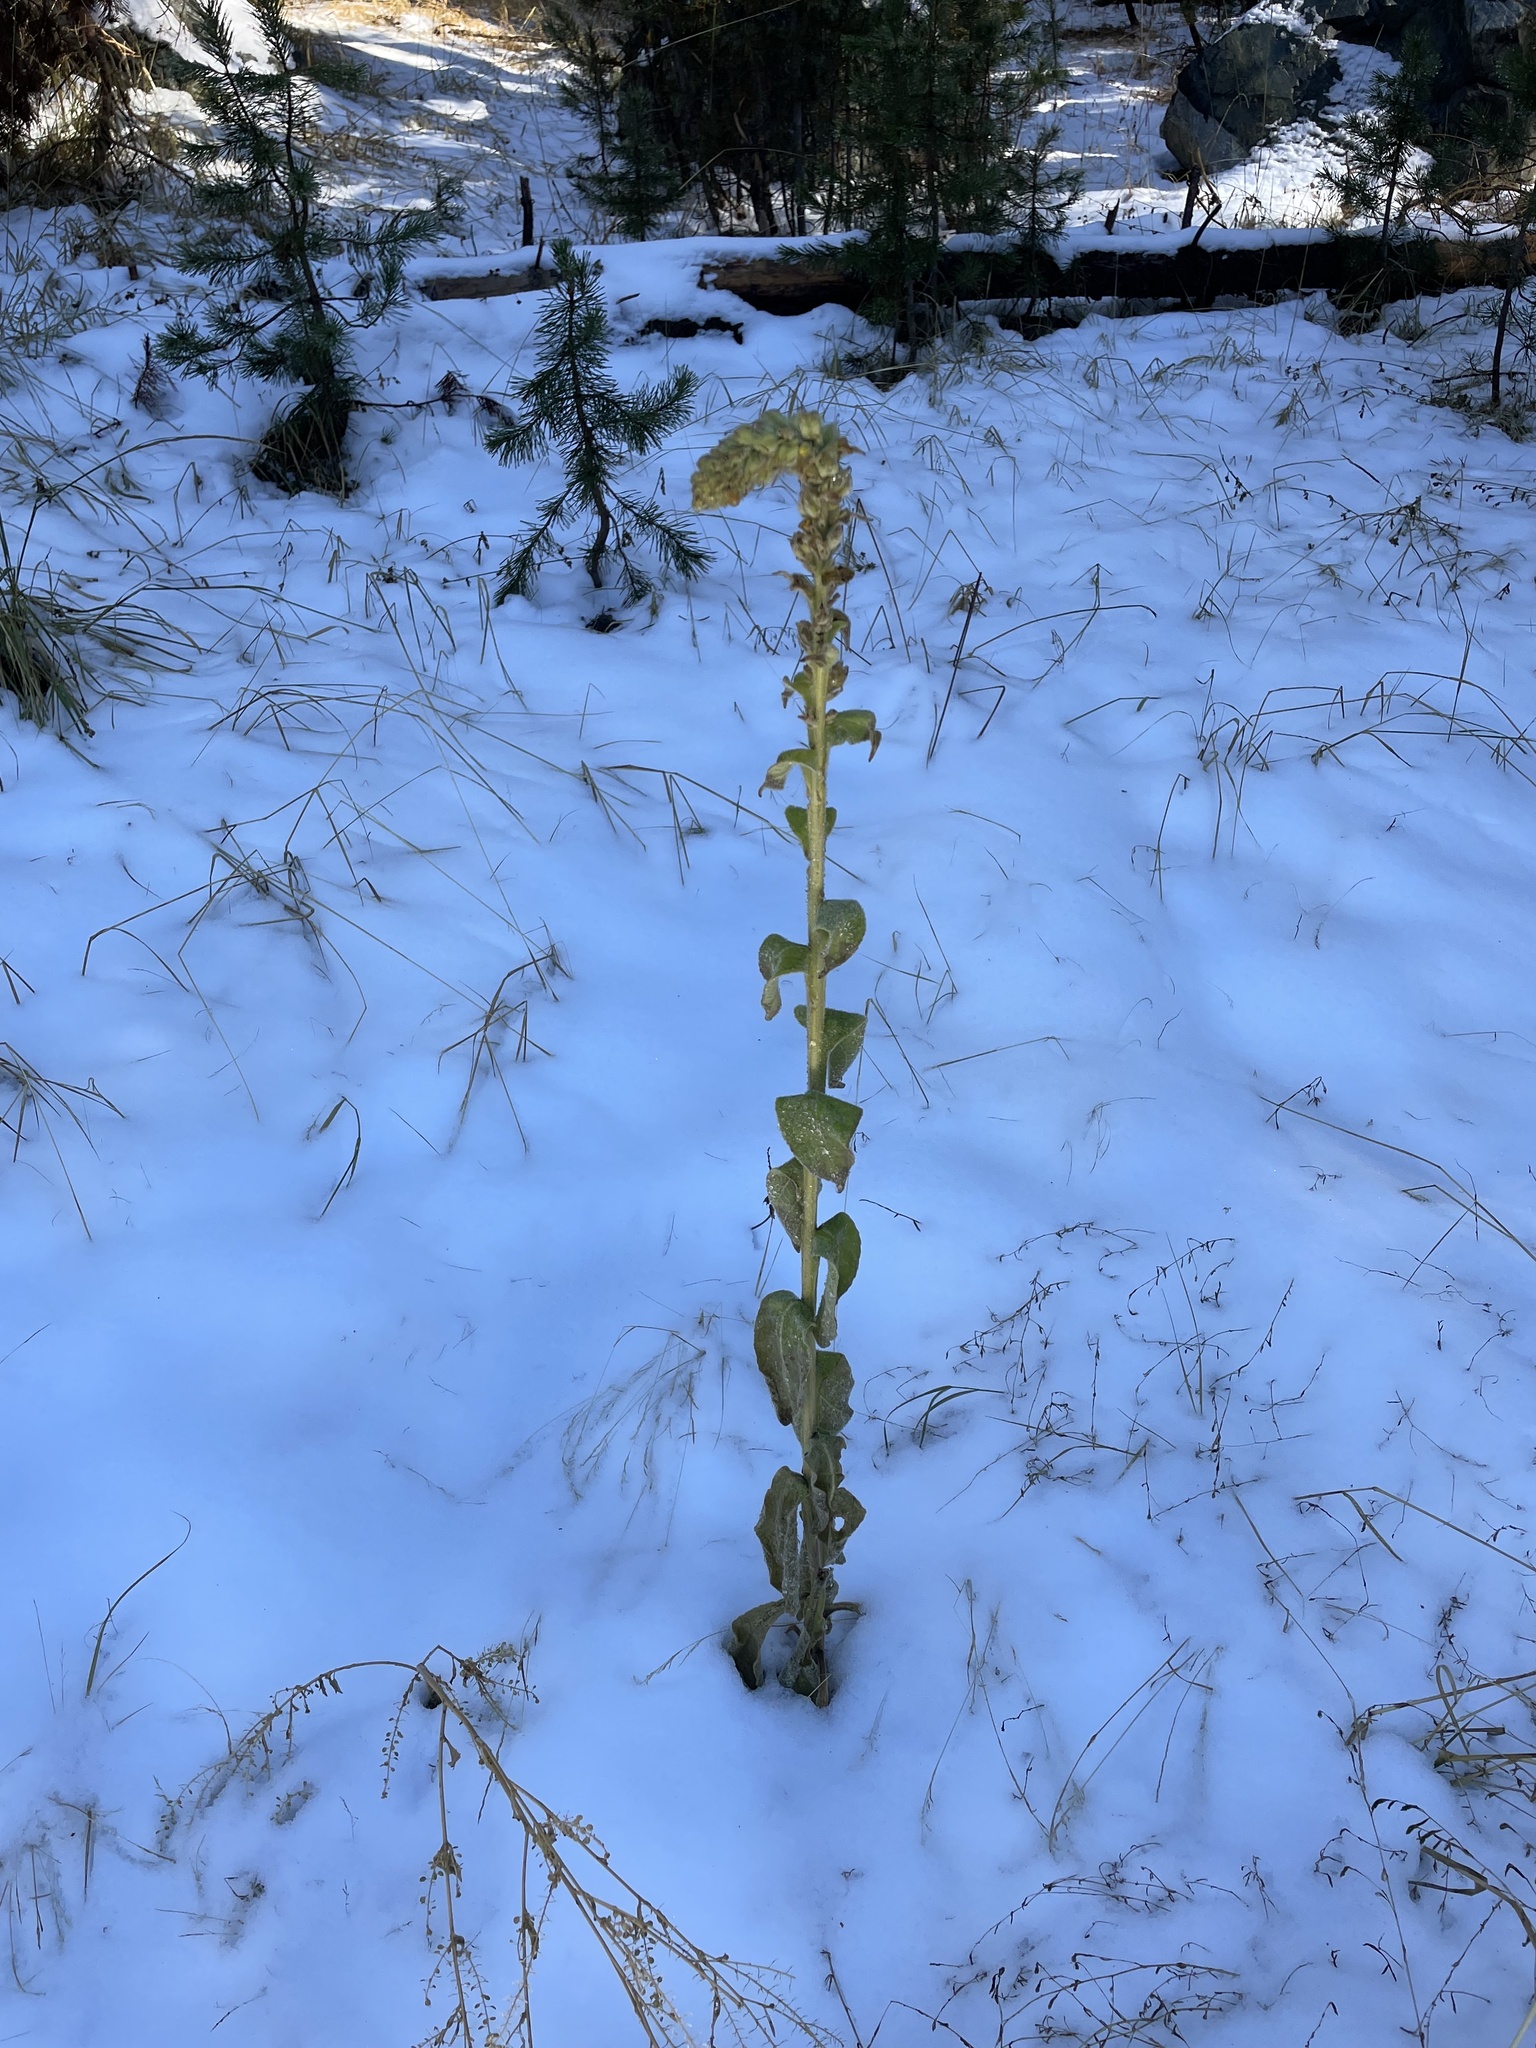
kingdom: Plantae
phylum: Tracheophyta
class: Magnoliopsida
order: Lamiales
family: Scrophulariaceae
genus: Verbascum
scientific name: Verbascum thapsus
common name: Common mullein
